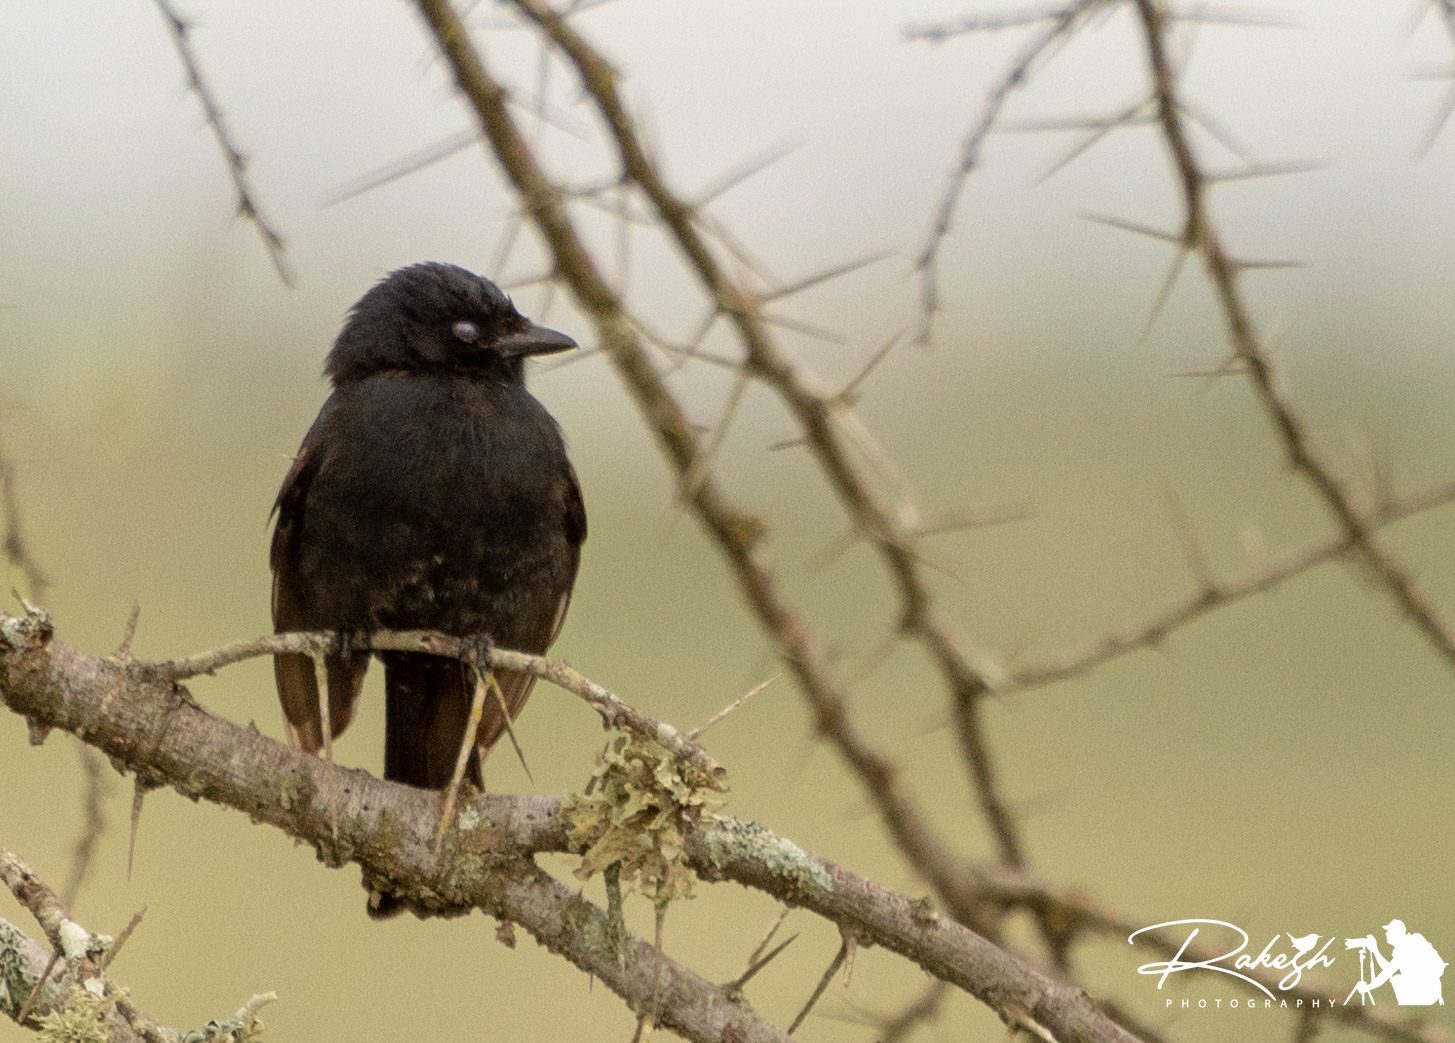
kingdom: Animalia
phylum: Chordata
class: Aves
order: Passeriformes
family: Muscicapidae
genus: Melaenornis
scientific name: Melaenornis pammelaina
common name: Southern black flycatcher
